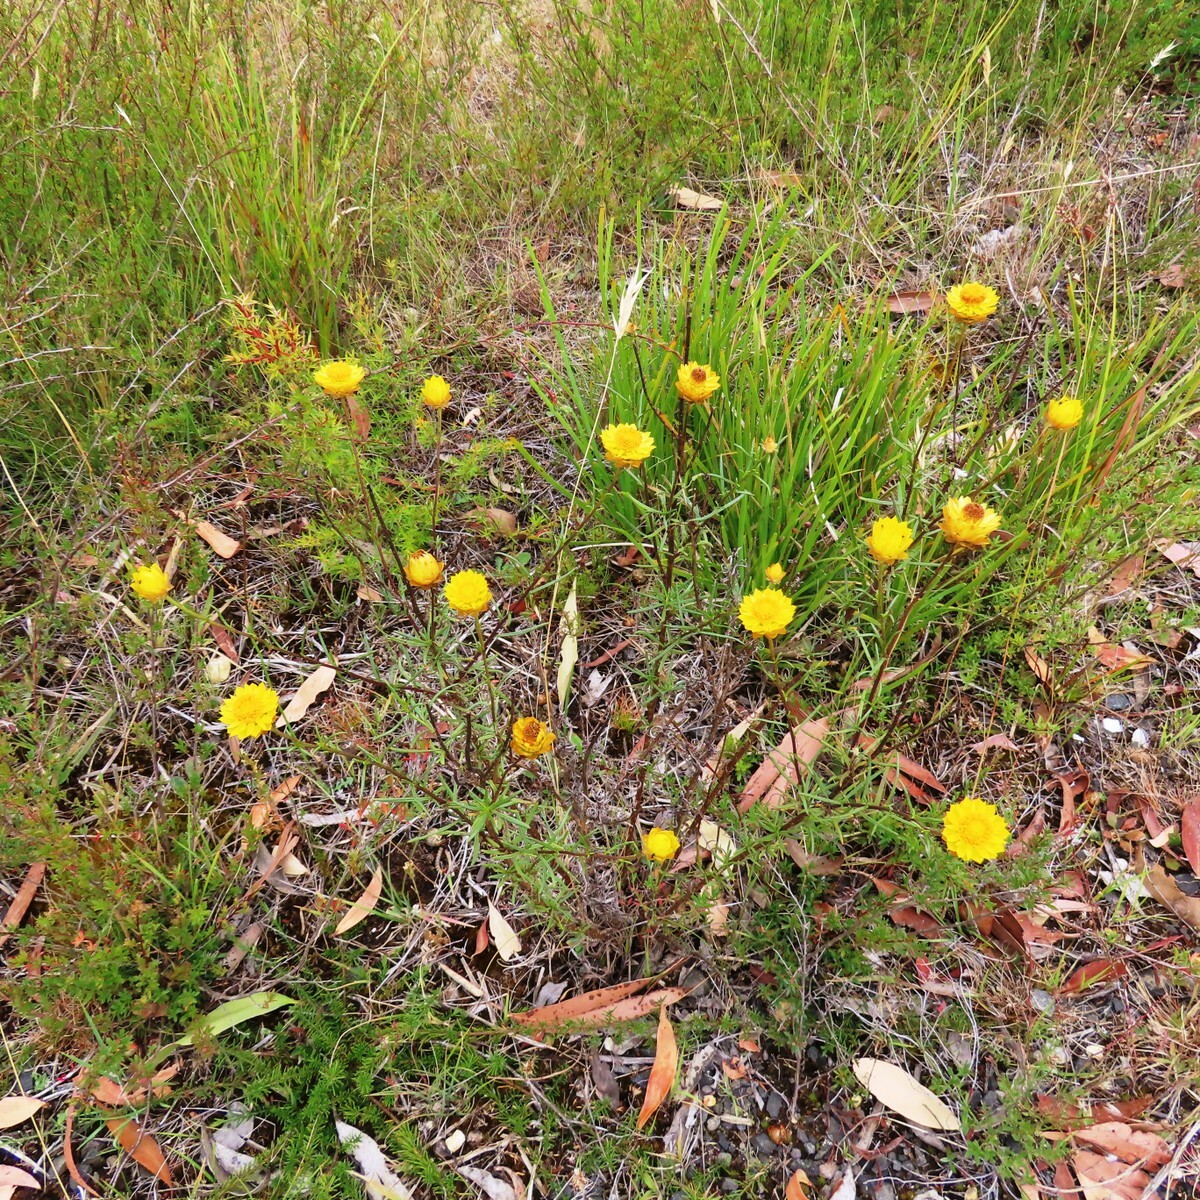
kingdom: Plantae
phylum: Tracheophyta
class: Magnoliopsida
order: Asterales
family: Asteraceae
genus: Xerochrysum
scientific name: Xerochrysum viscosum
